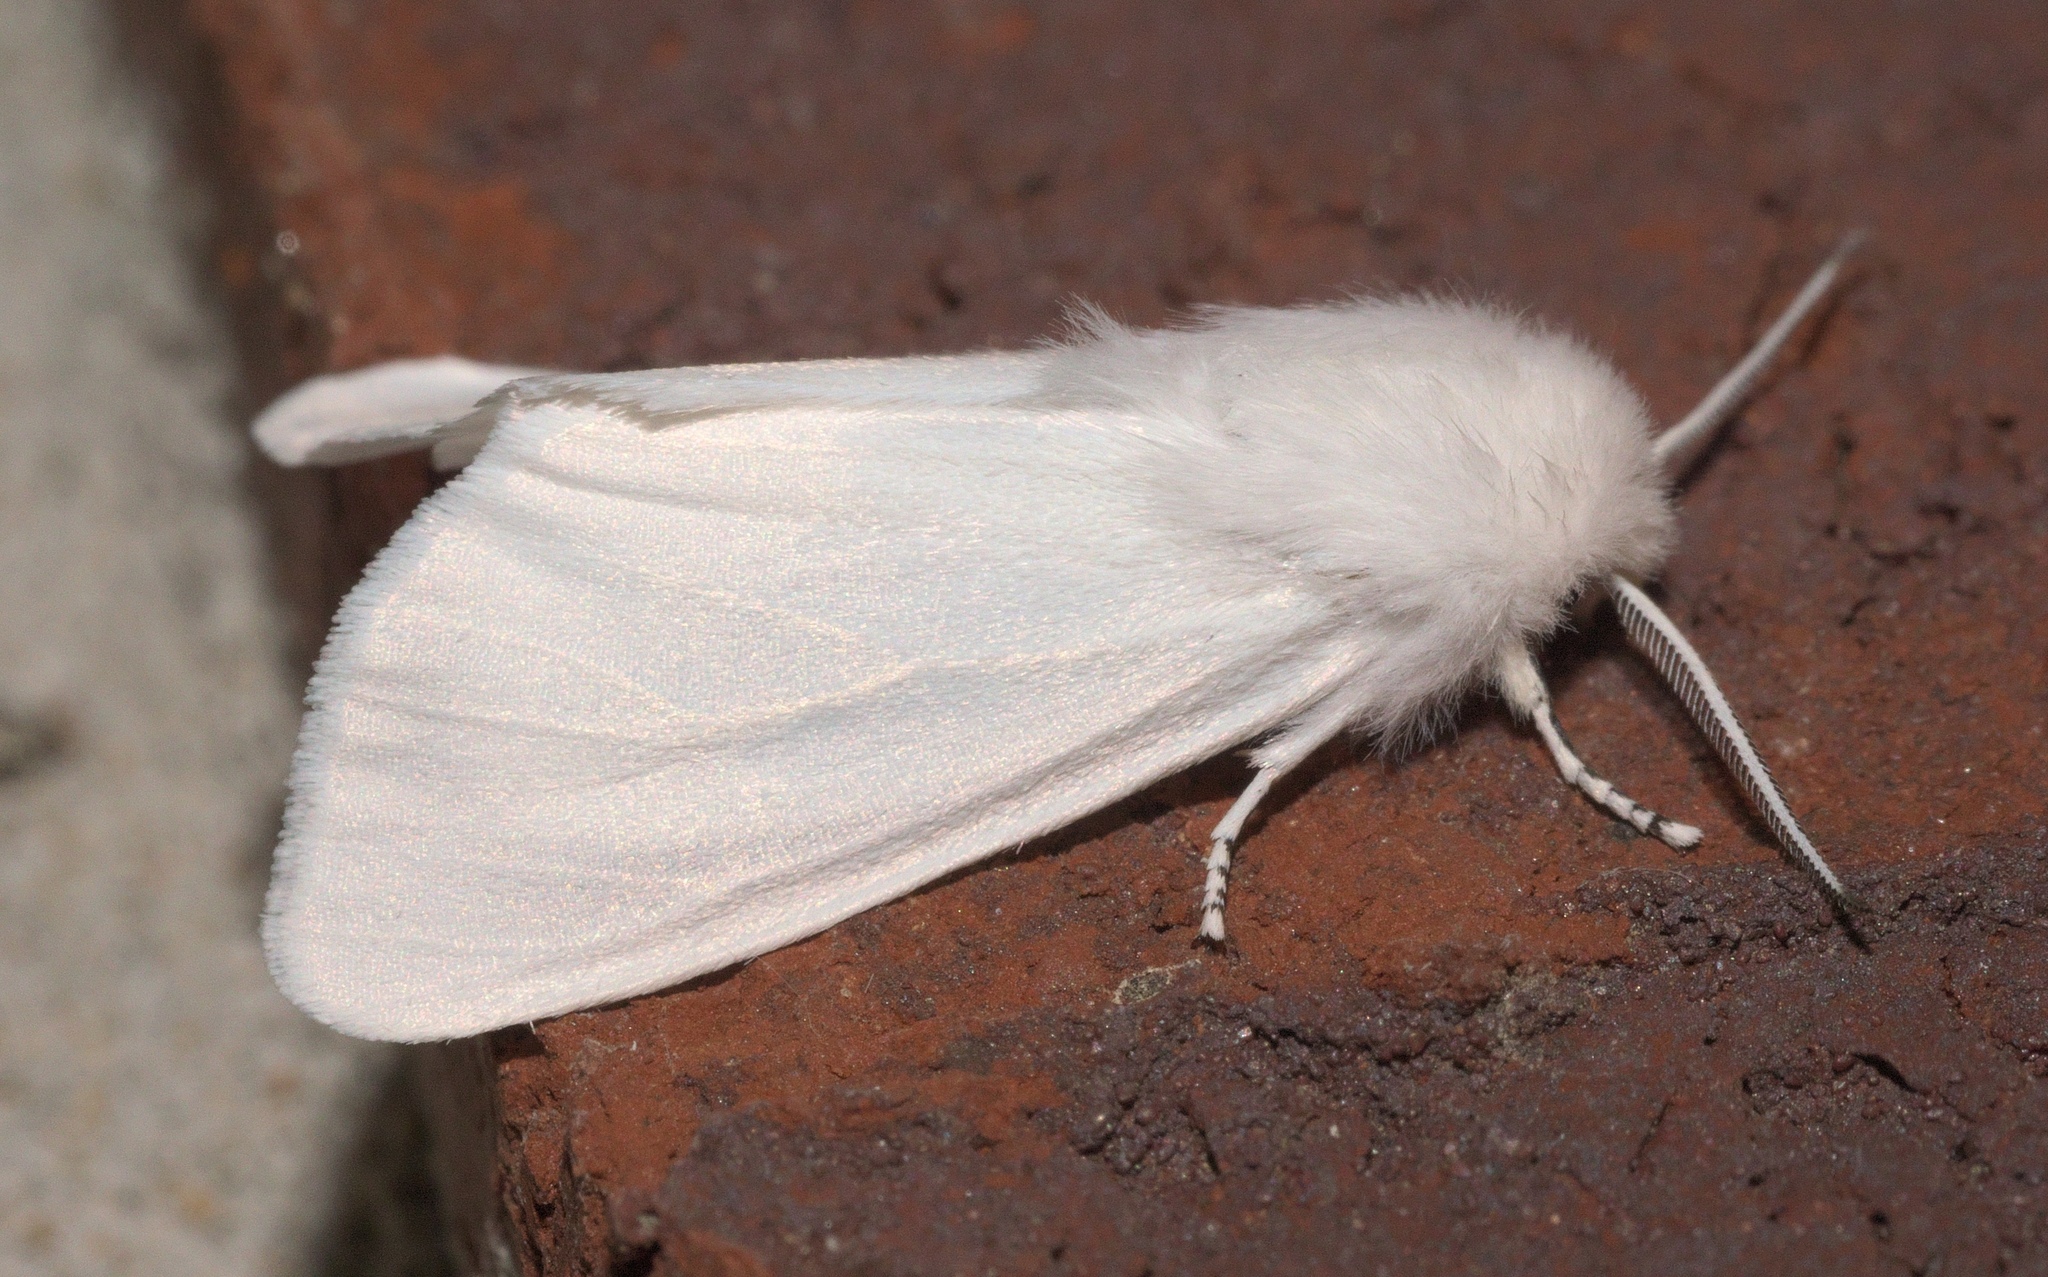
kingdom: Animalia
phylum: Arthropoda
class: Insecta
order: Lepidoptera
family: Erebidae
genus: Hyphantria
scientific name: Hyphantria cunea
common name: American white moth
